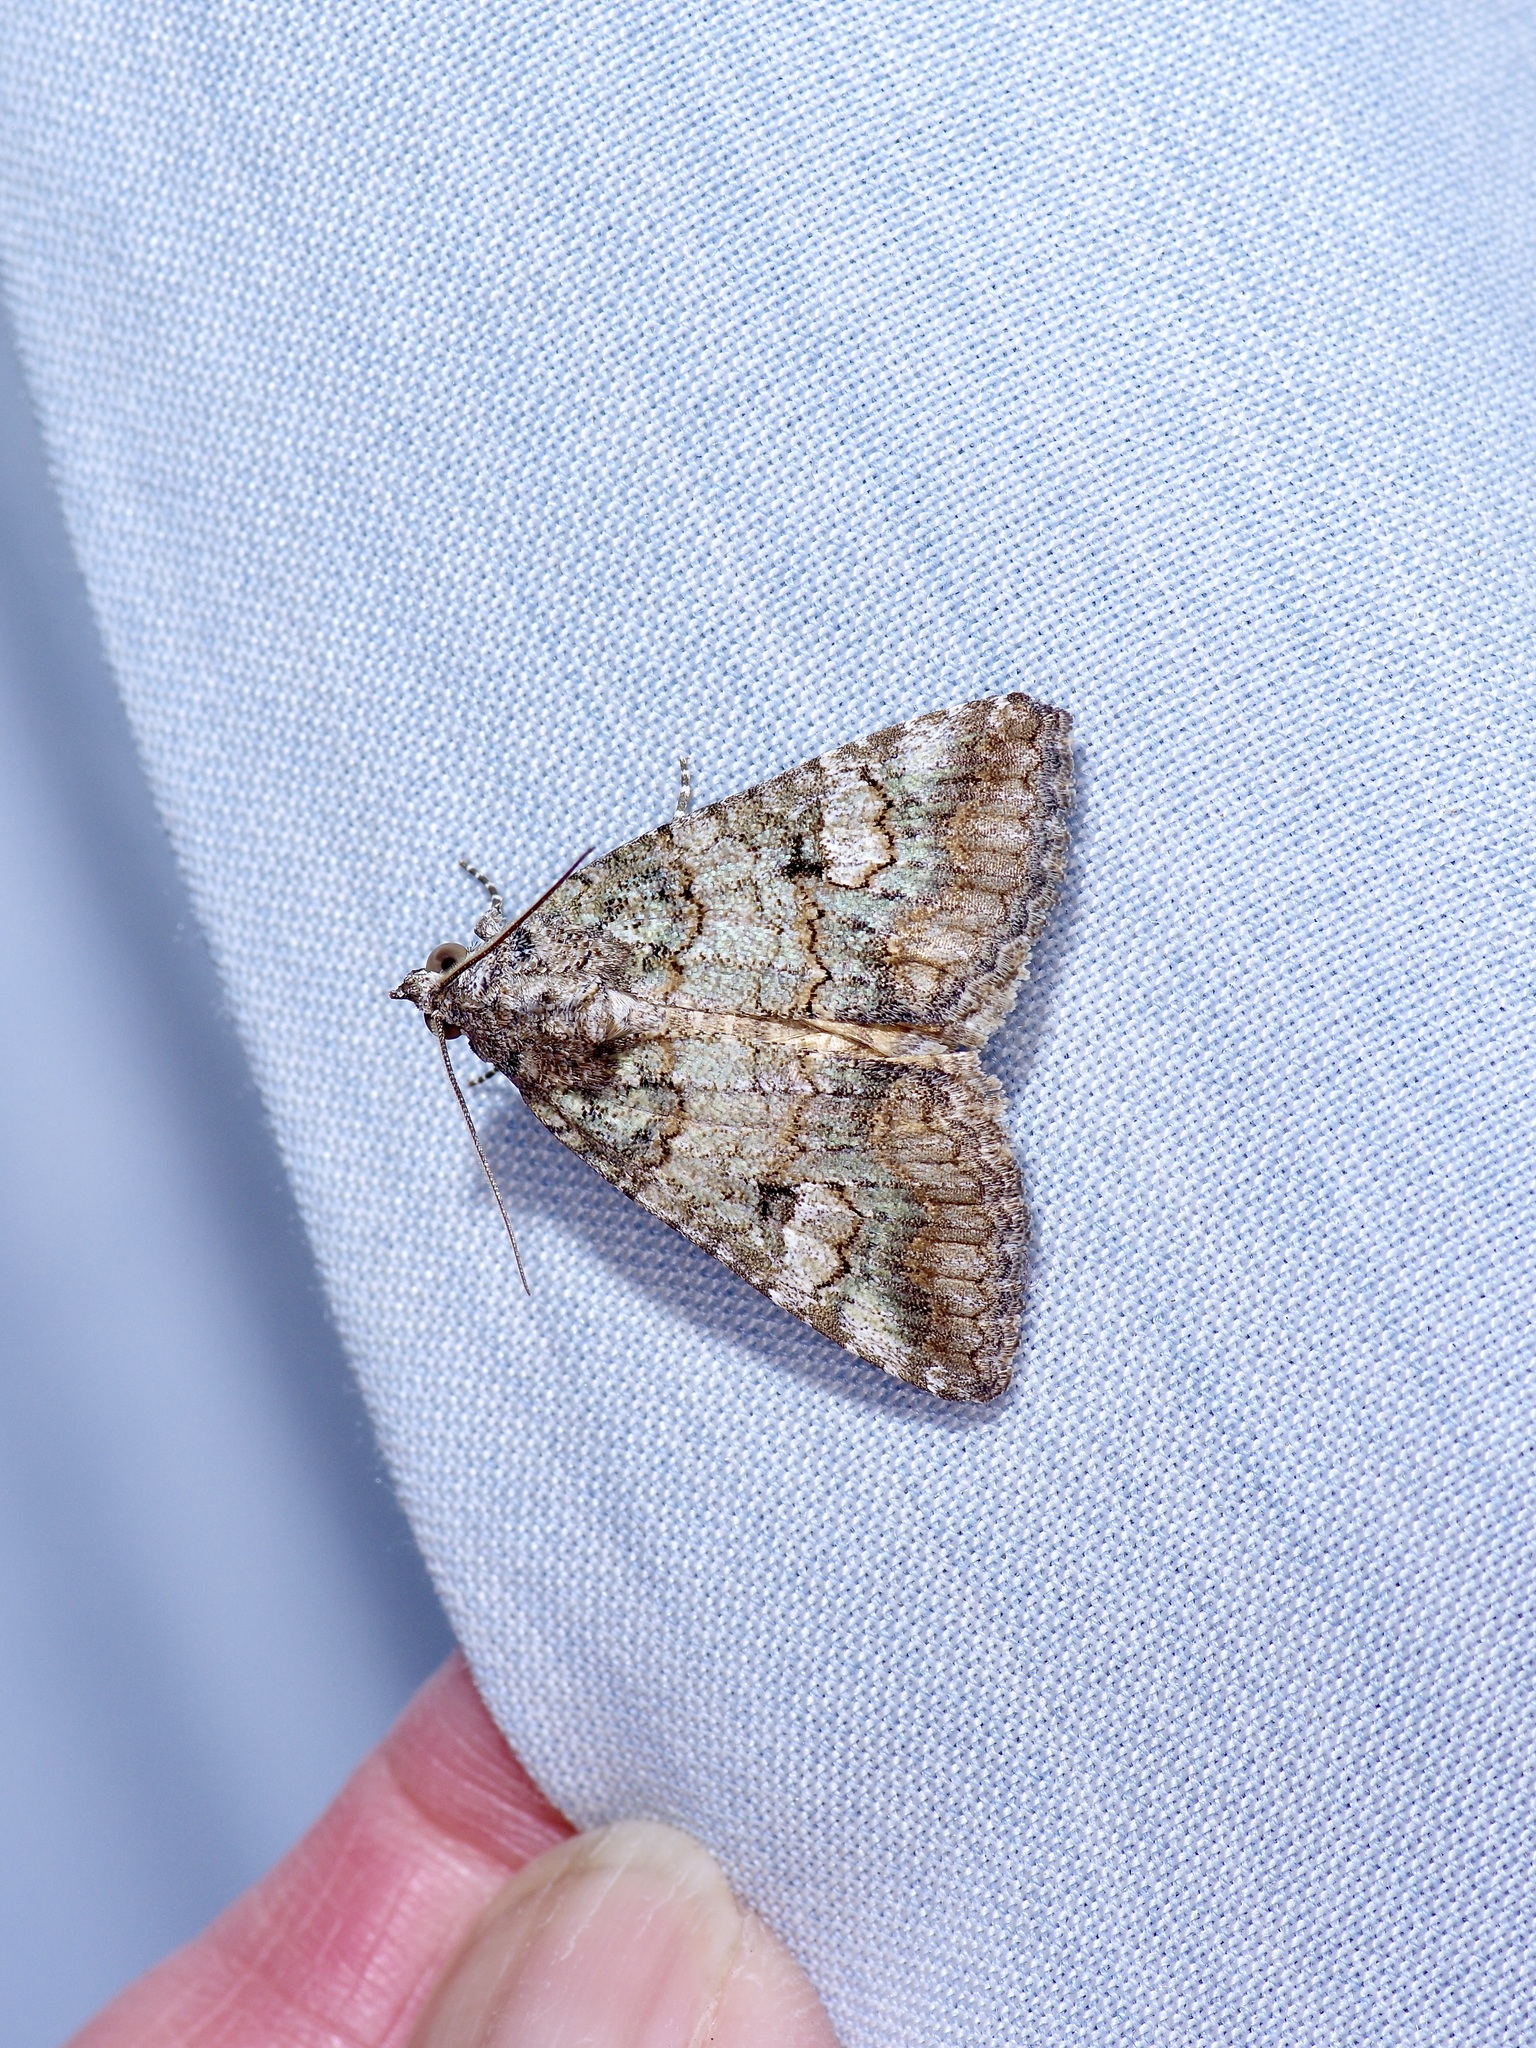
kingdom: Animalia
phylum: Arthropoda
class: Insecta
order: Lepidoptera
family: Erebidae
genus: Eubolina
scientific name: Eubolina impartialis
